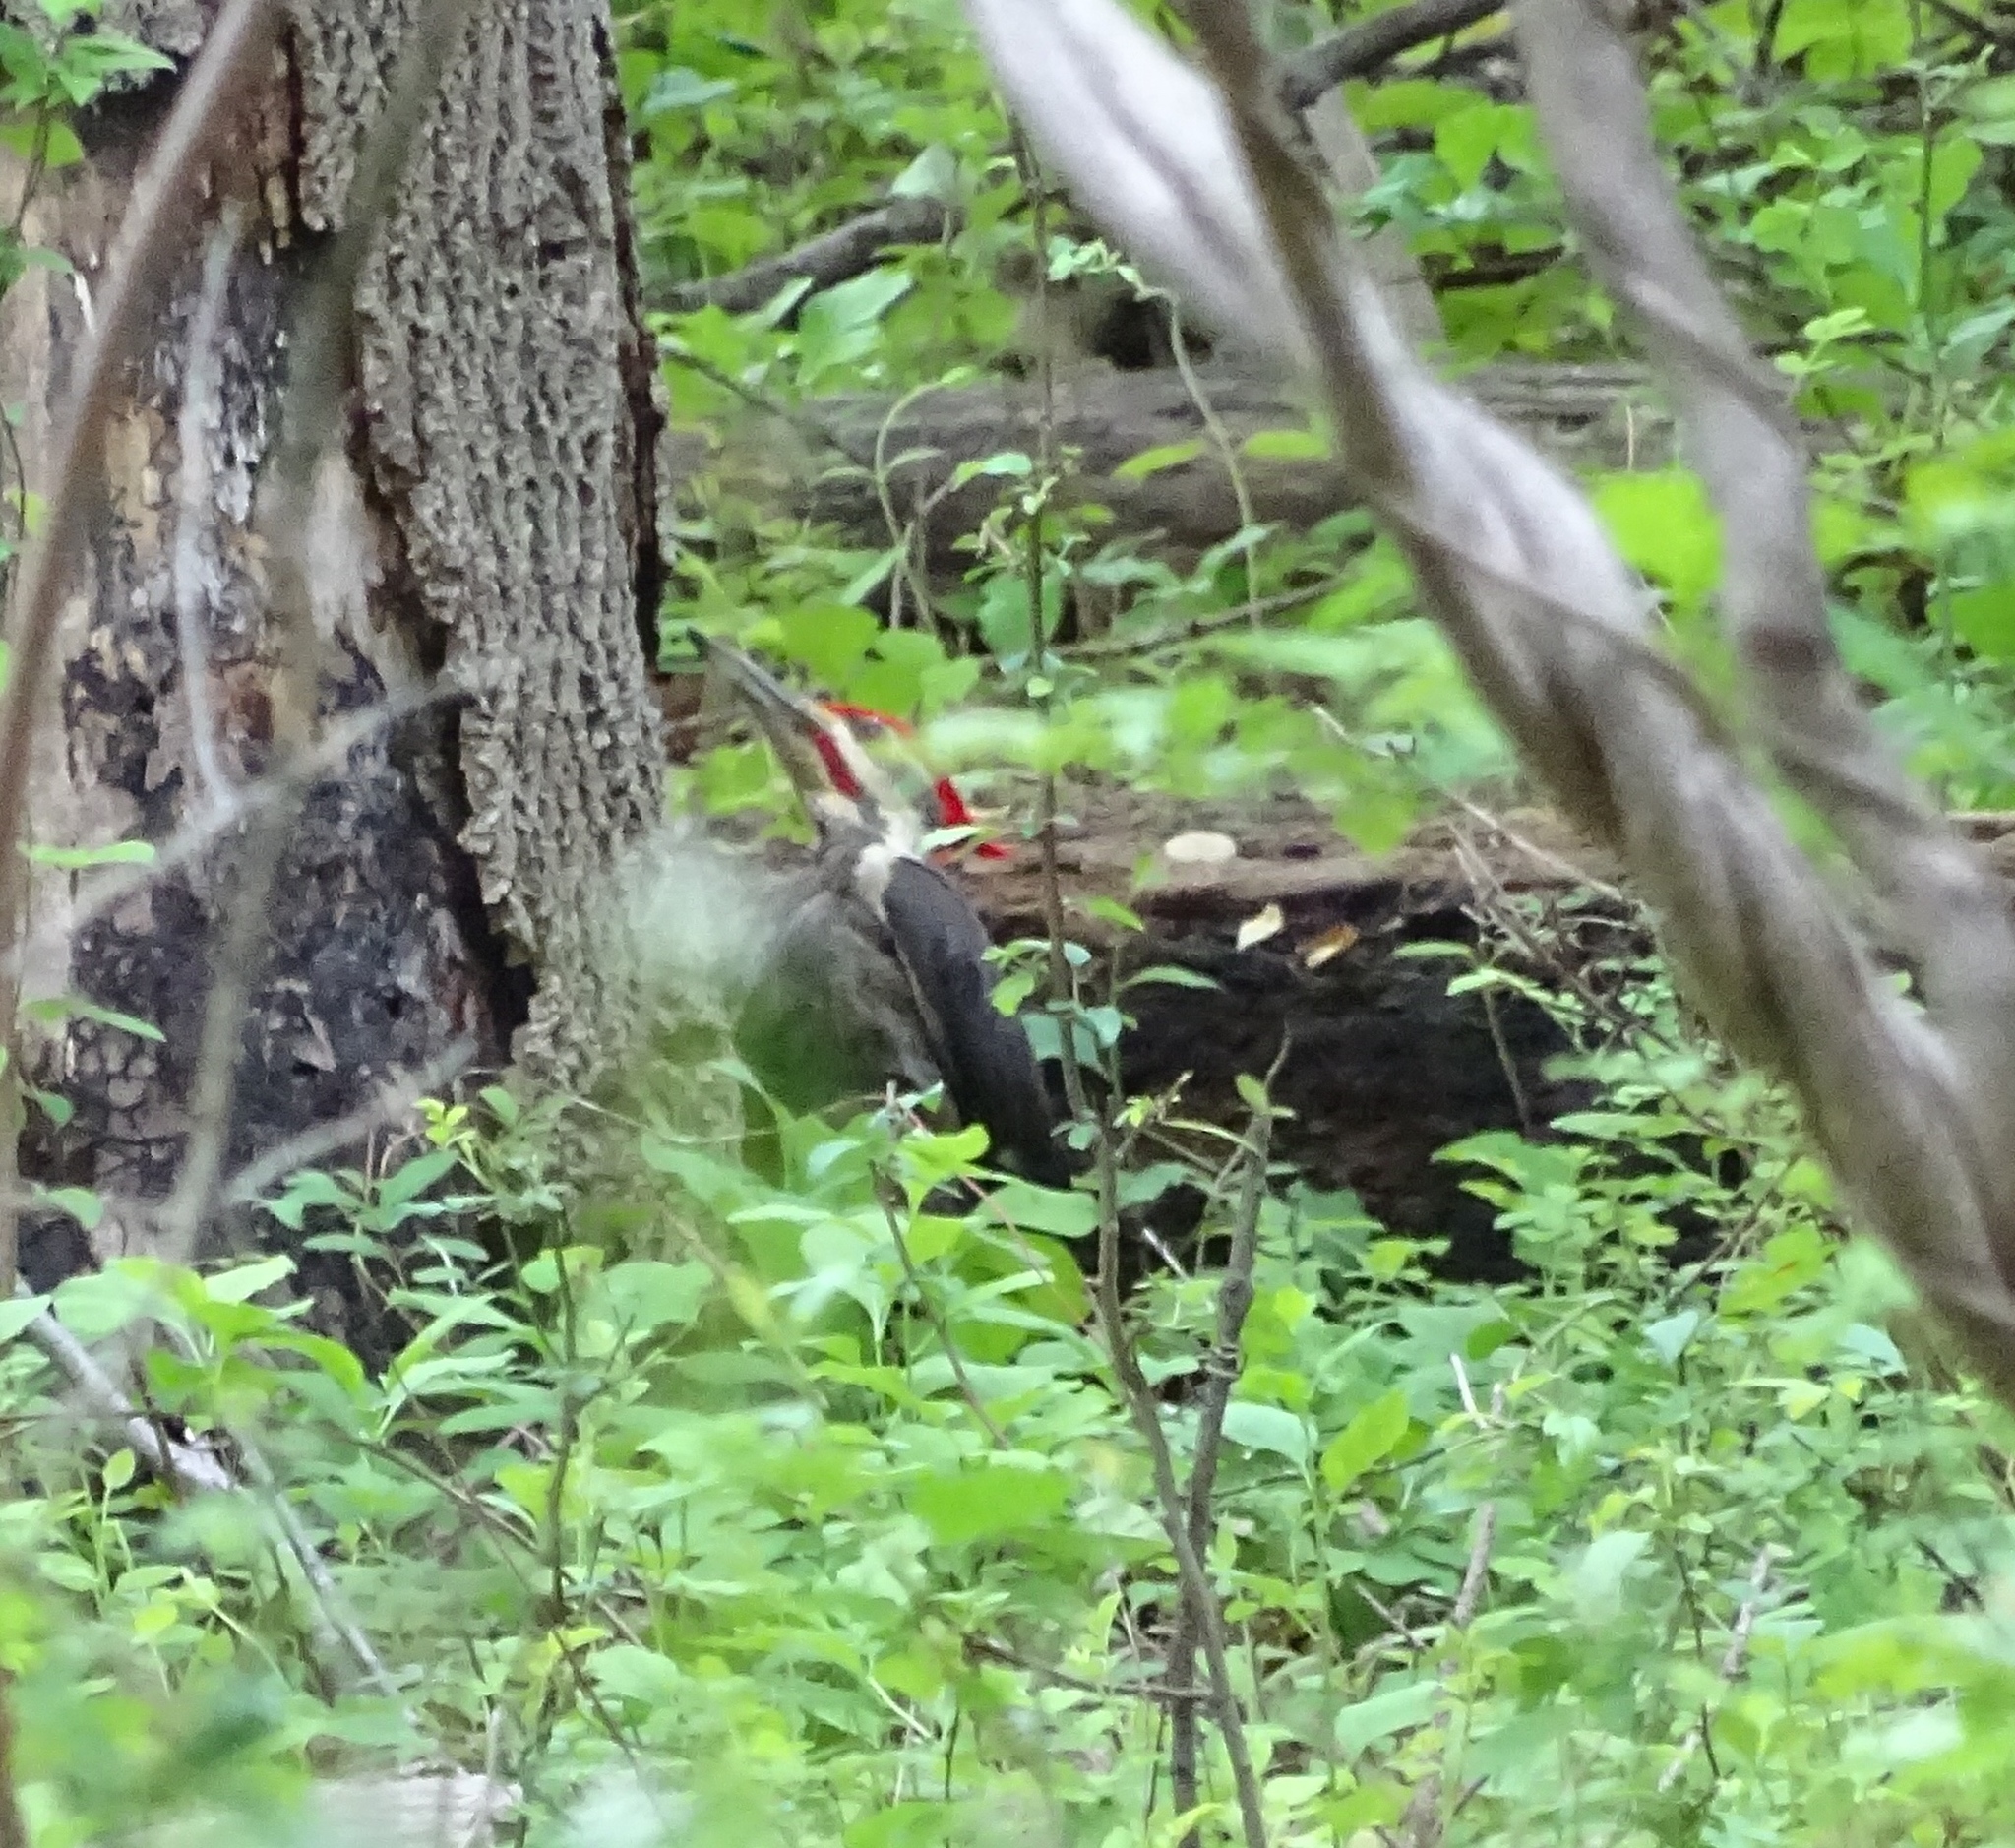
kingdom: Animalia
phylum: Chordata
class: Aves
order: Piciformes
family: Picidae
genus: Dryocopus
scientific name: Dryocopus pileatus
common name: Pileated woodpecker
